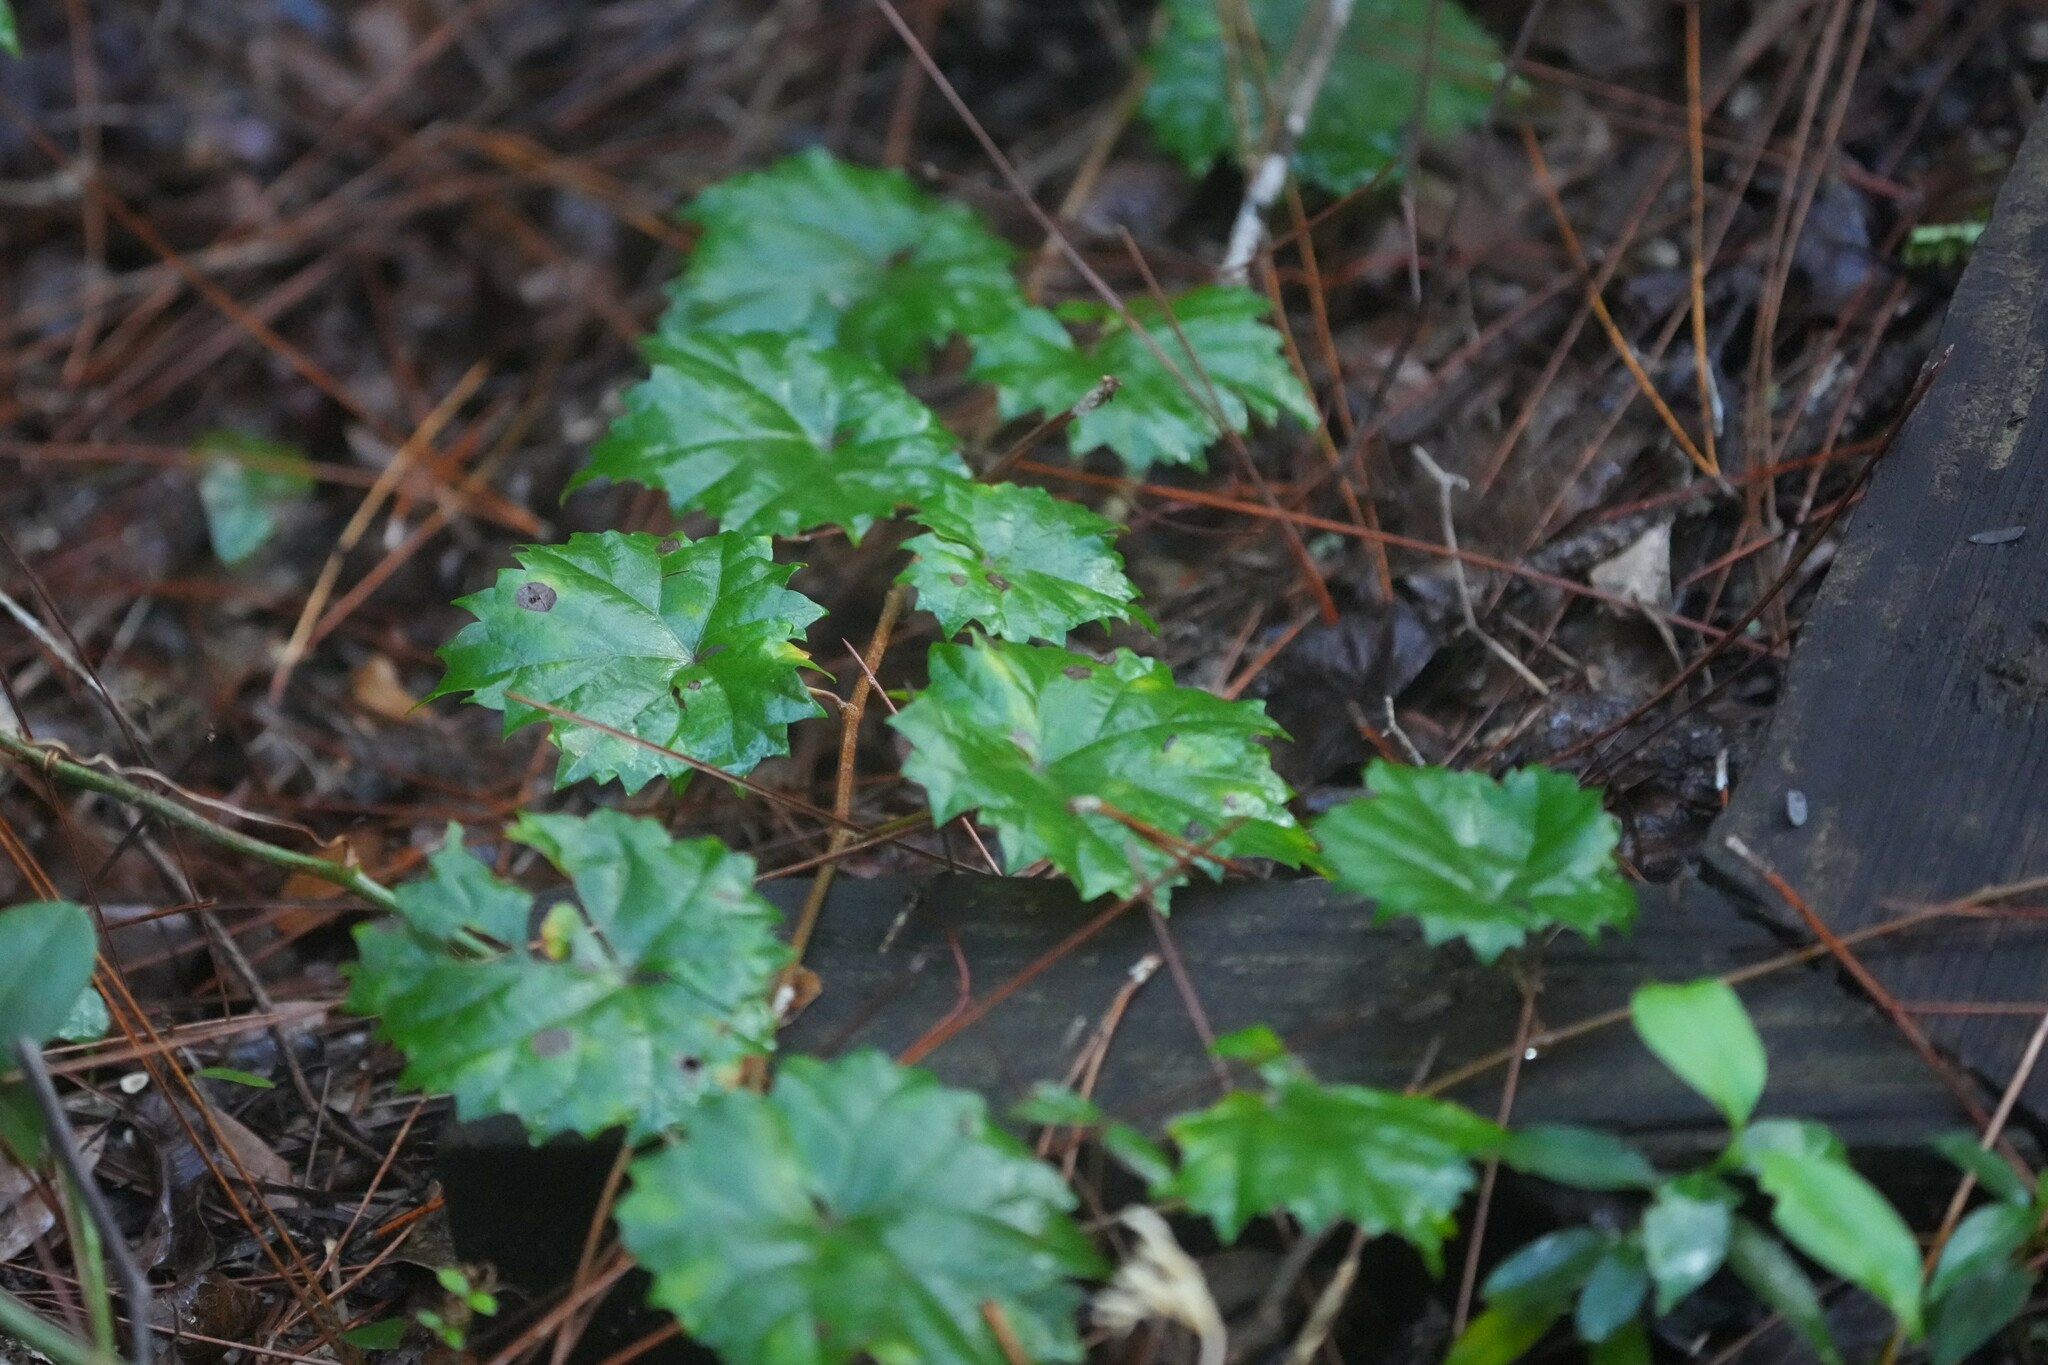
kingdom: Plantae
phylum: Tracheophyta
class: Magnoliopsida
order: Vitales
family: Vitaceae
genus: Vitis
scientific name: Vitis rotundifolia
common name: Muscadine grape
